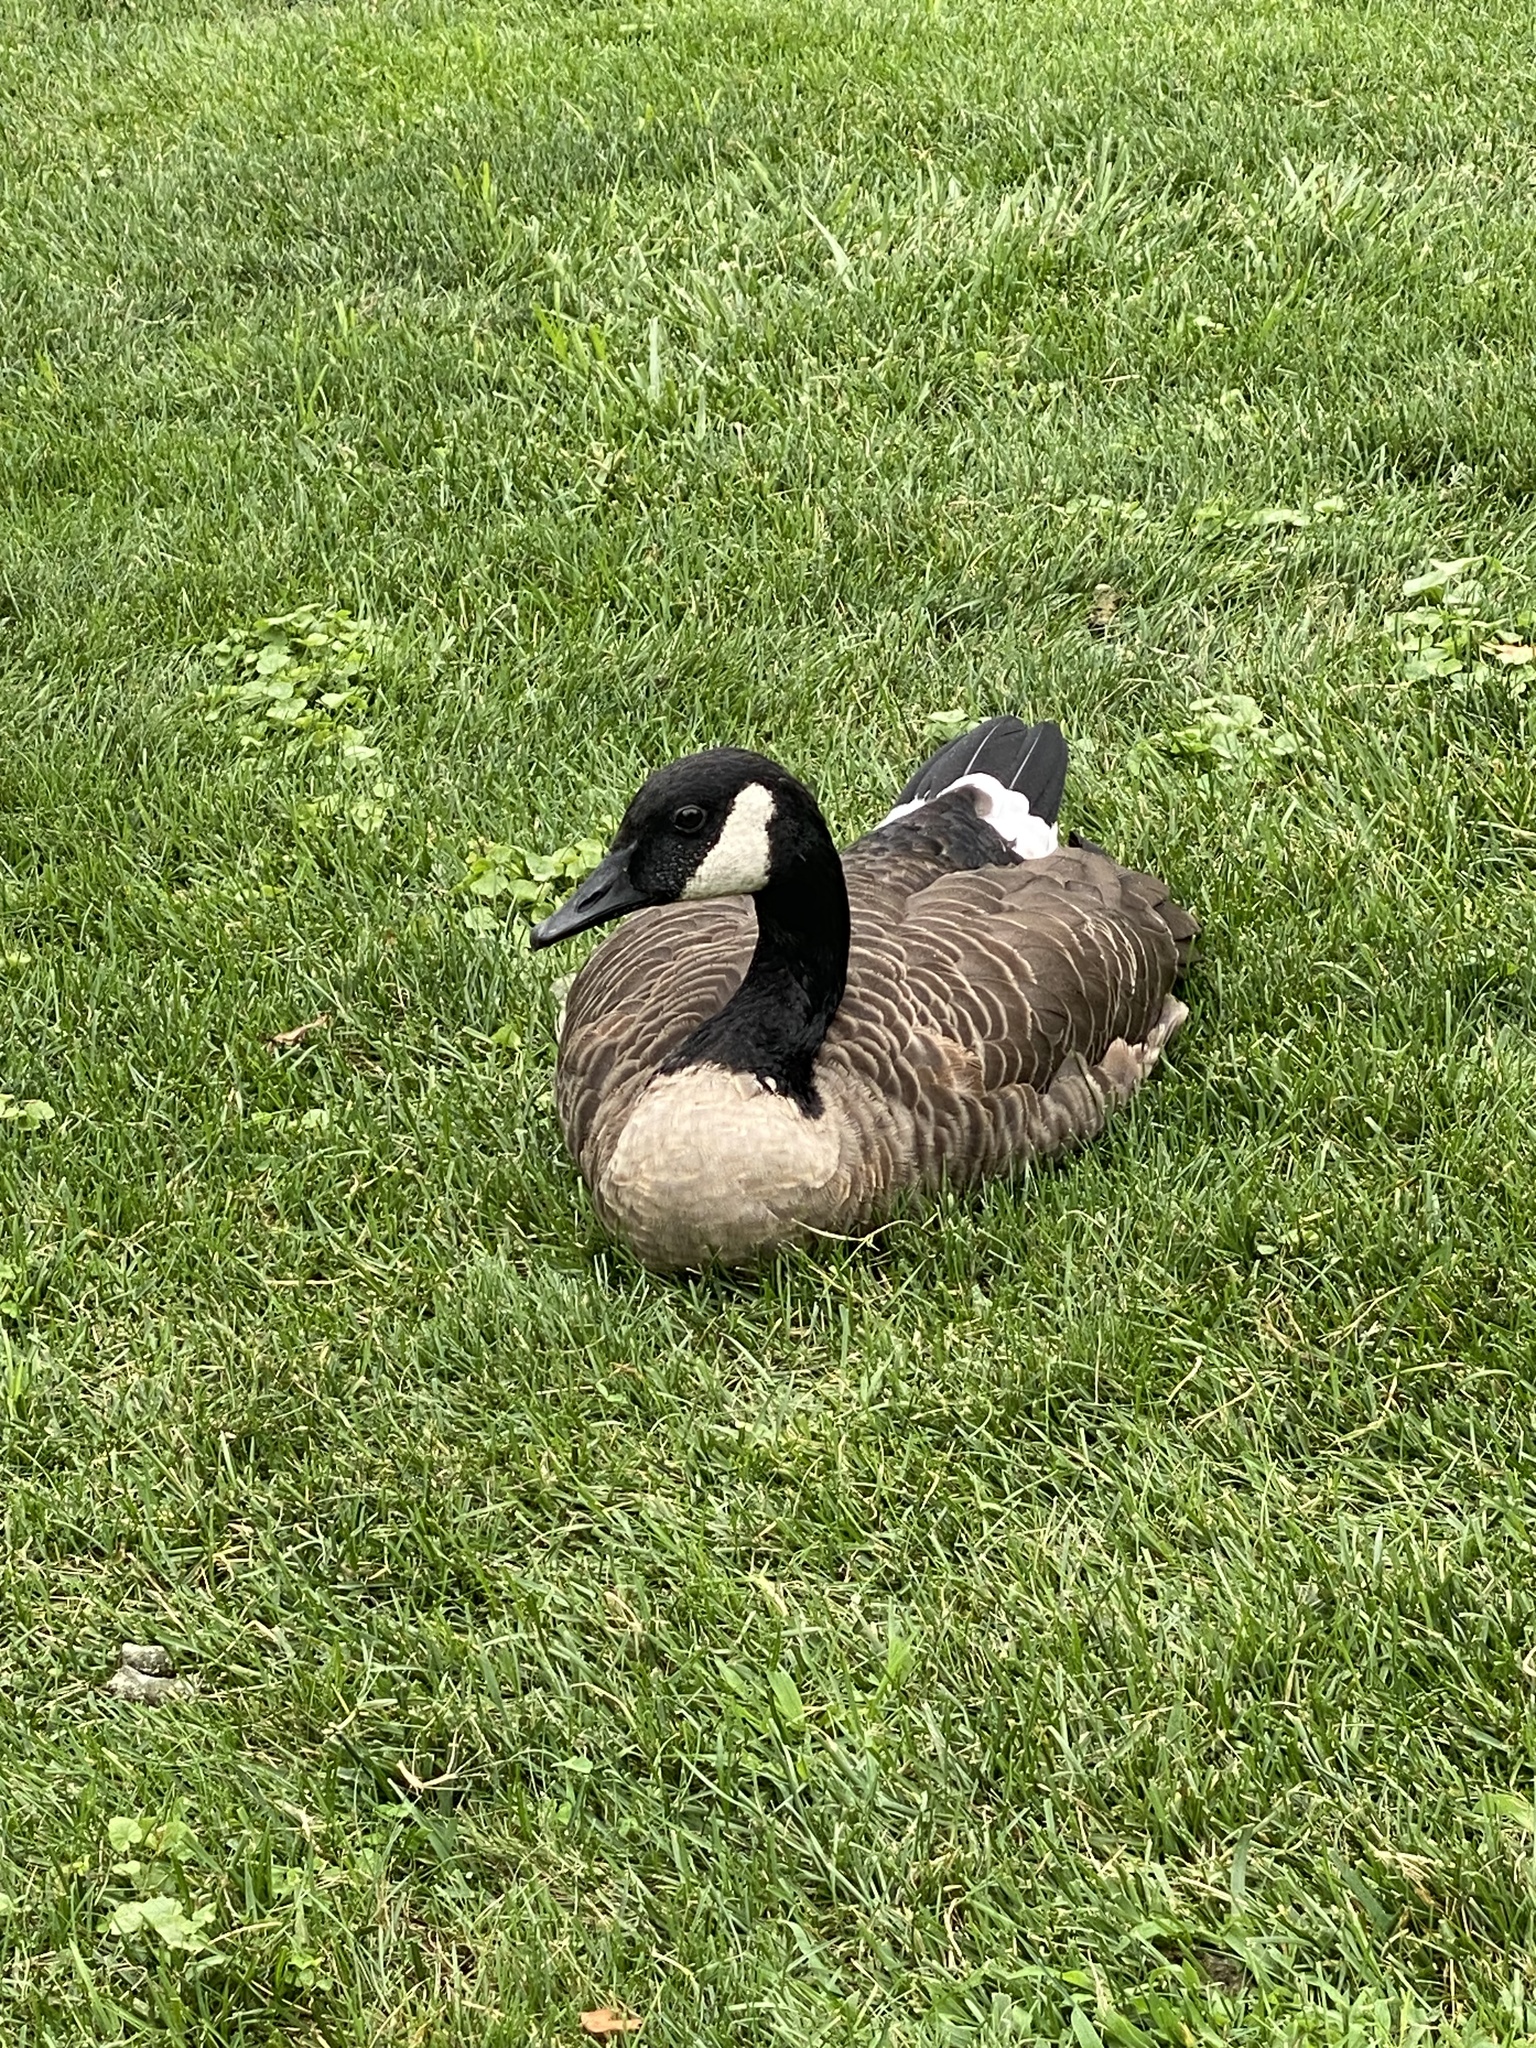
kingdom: Animalia
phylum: Chordata
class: Aves
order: Anseriformes
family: Anatidae
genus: Branta
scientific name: Branta canadensis
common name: Canada goose
